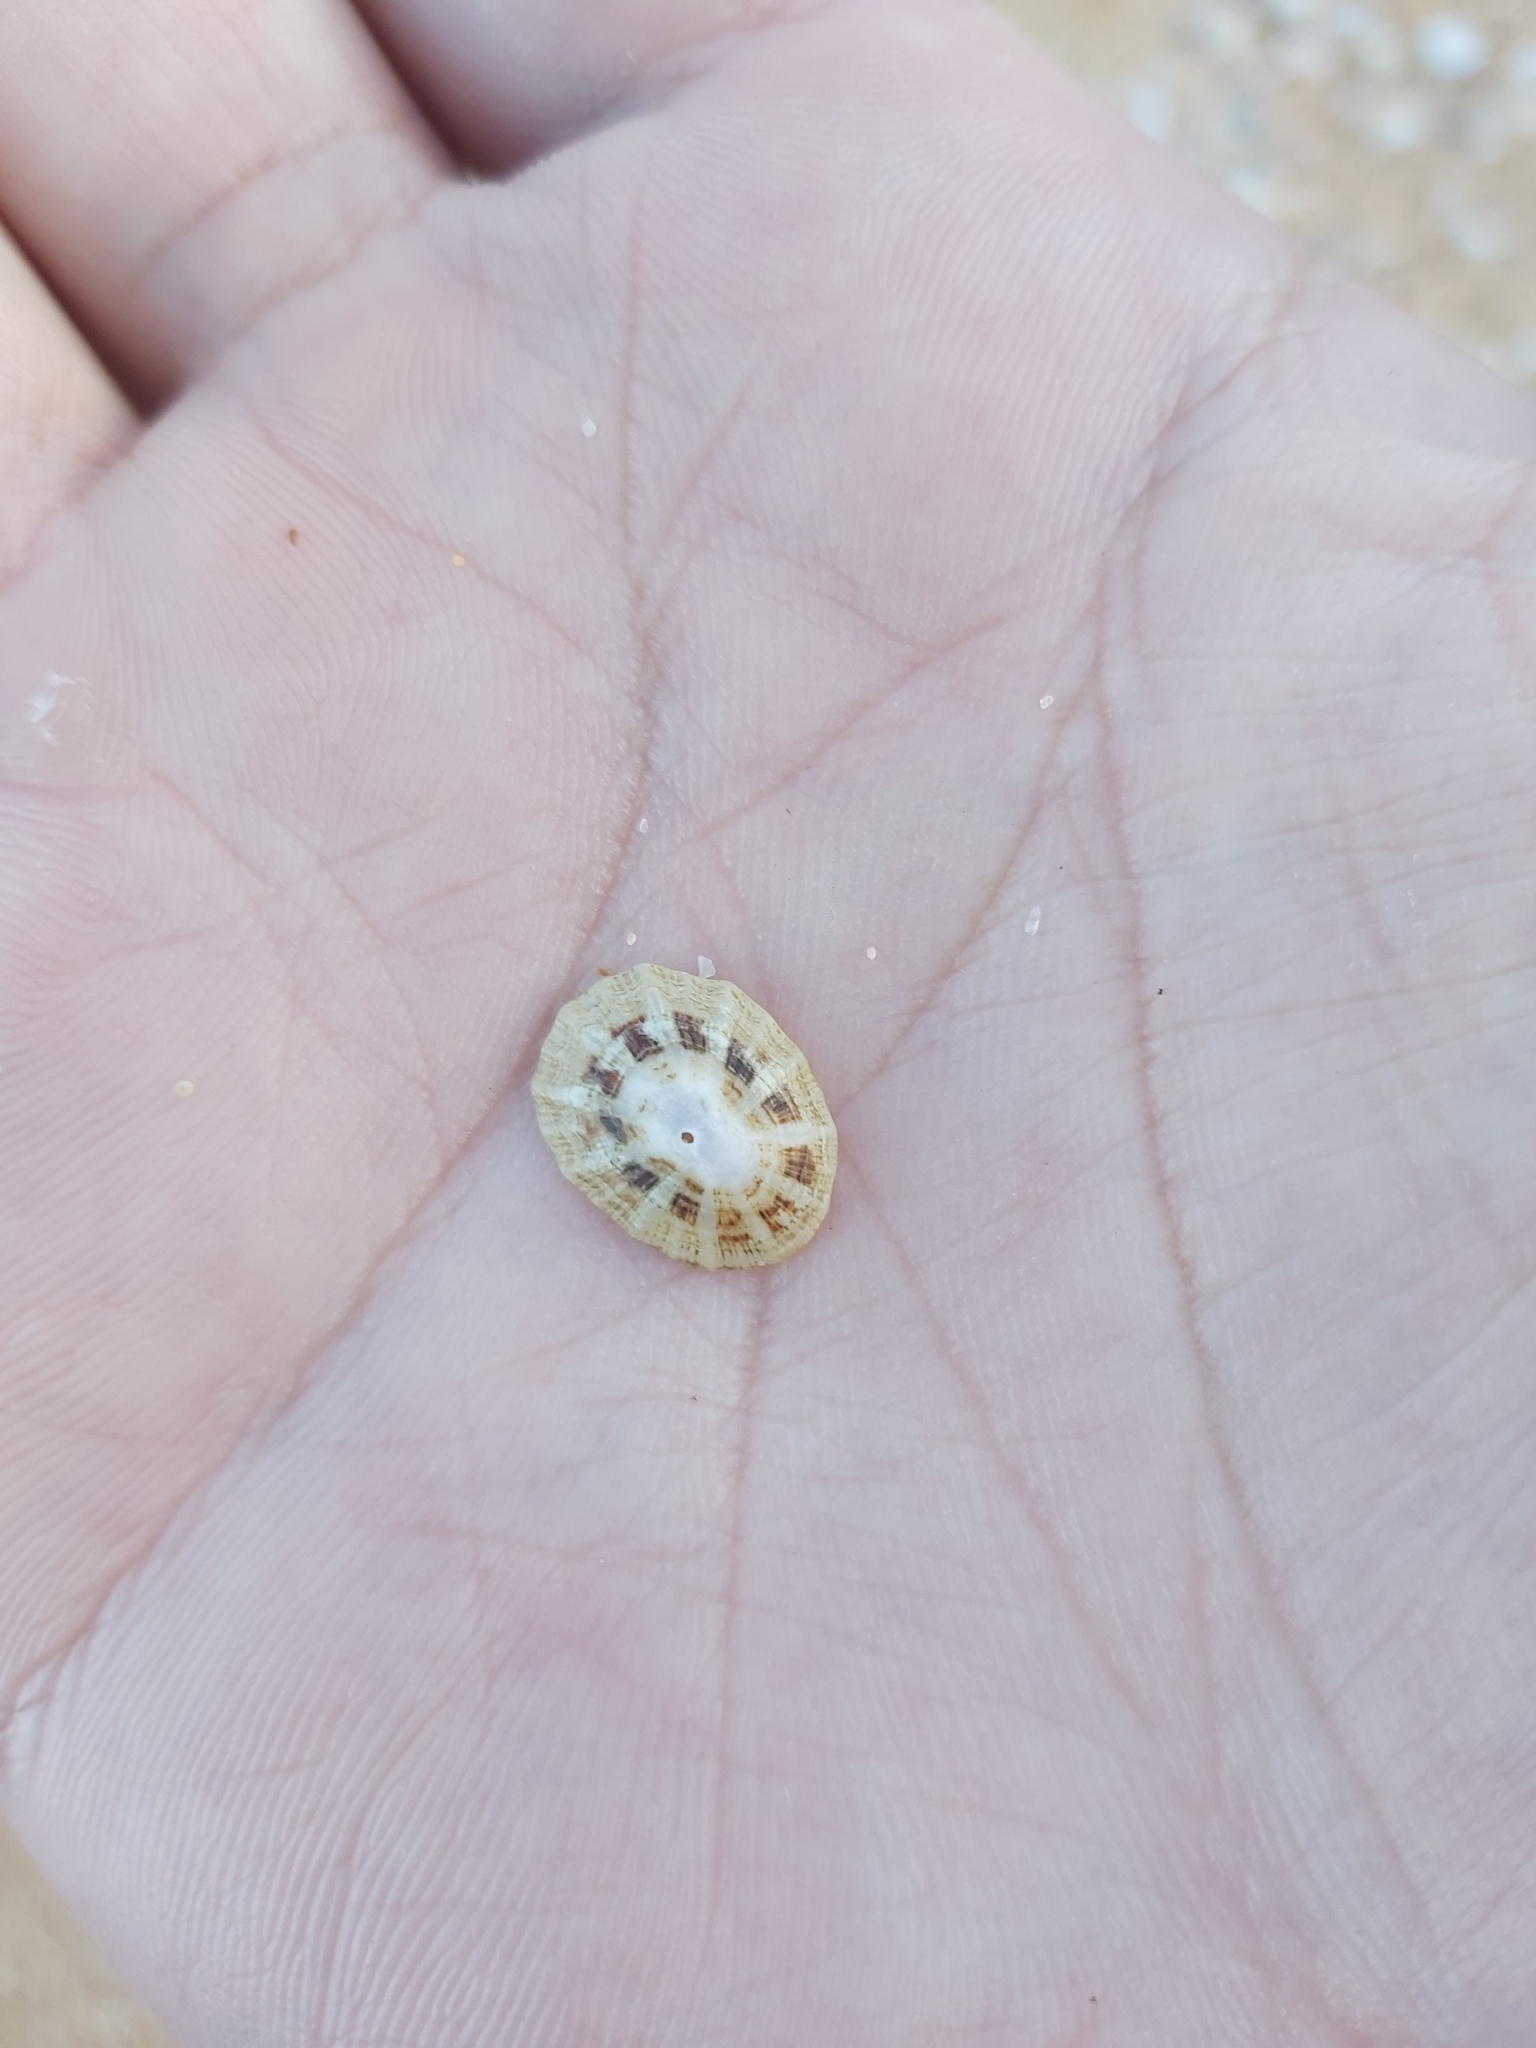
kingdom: Animalia
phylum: Mollusca
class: Gastropoda
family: Patellidae
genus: Scutellastra
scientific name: Scutellastra peronii
